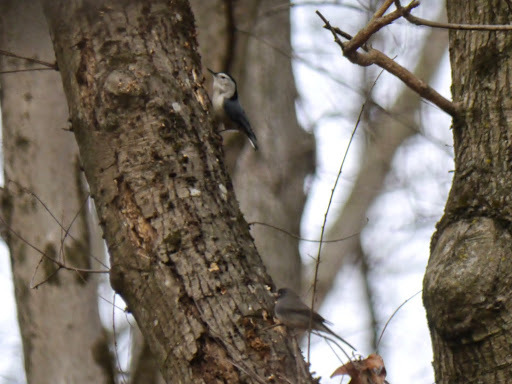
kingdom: Animalia
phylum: Chordata
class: Aves
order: Passeriformes
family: Sittidae
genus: Sitta
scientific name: Sitta carolinensis
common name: White-breasted nuthatch
